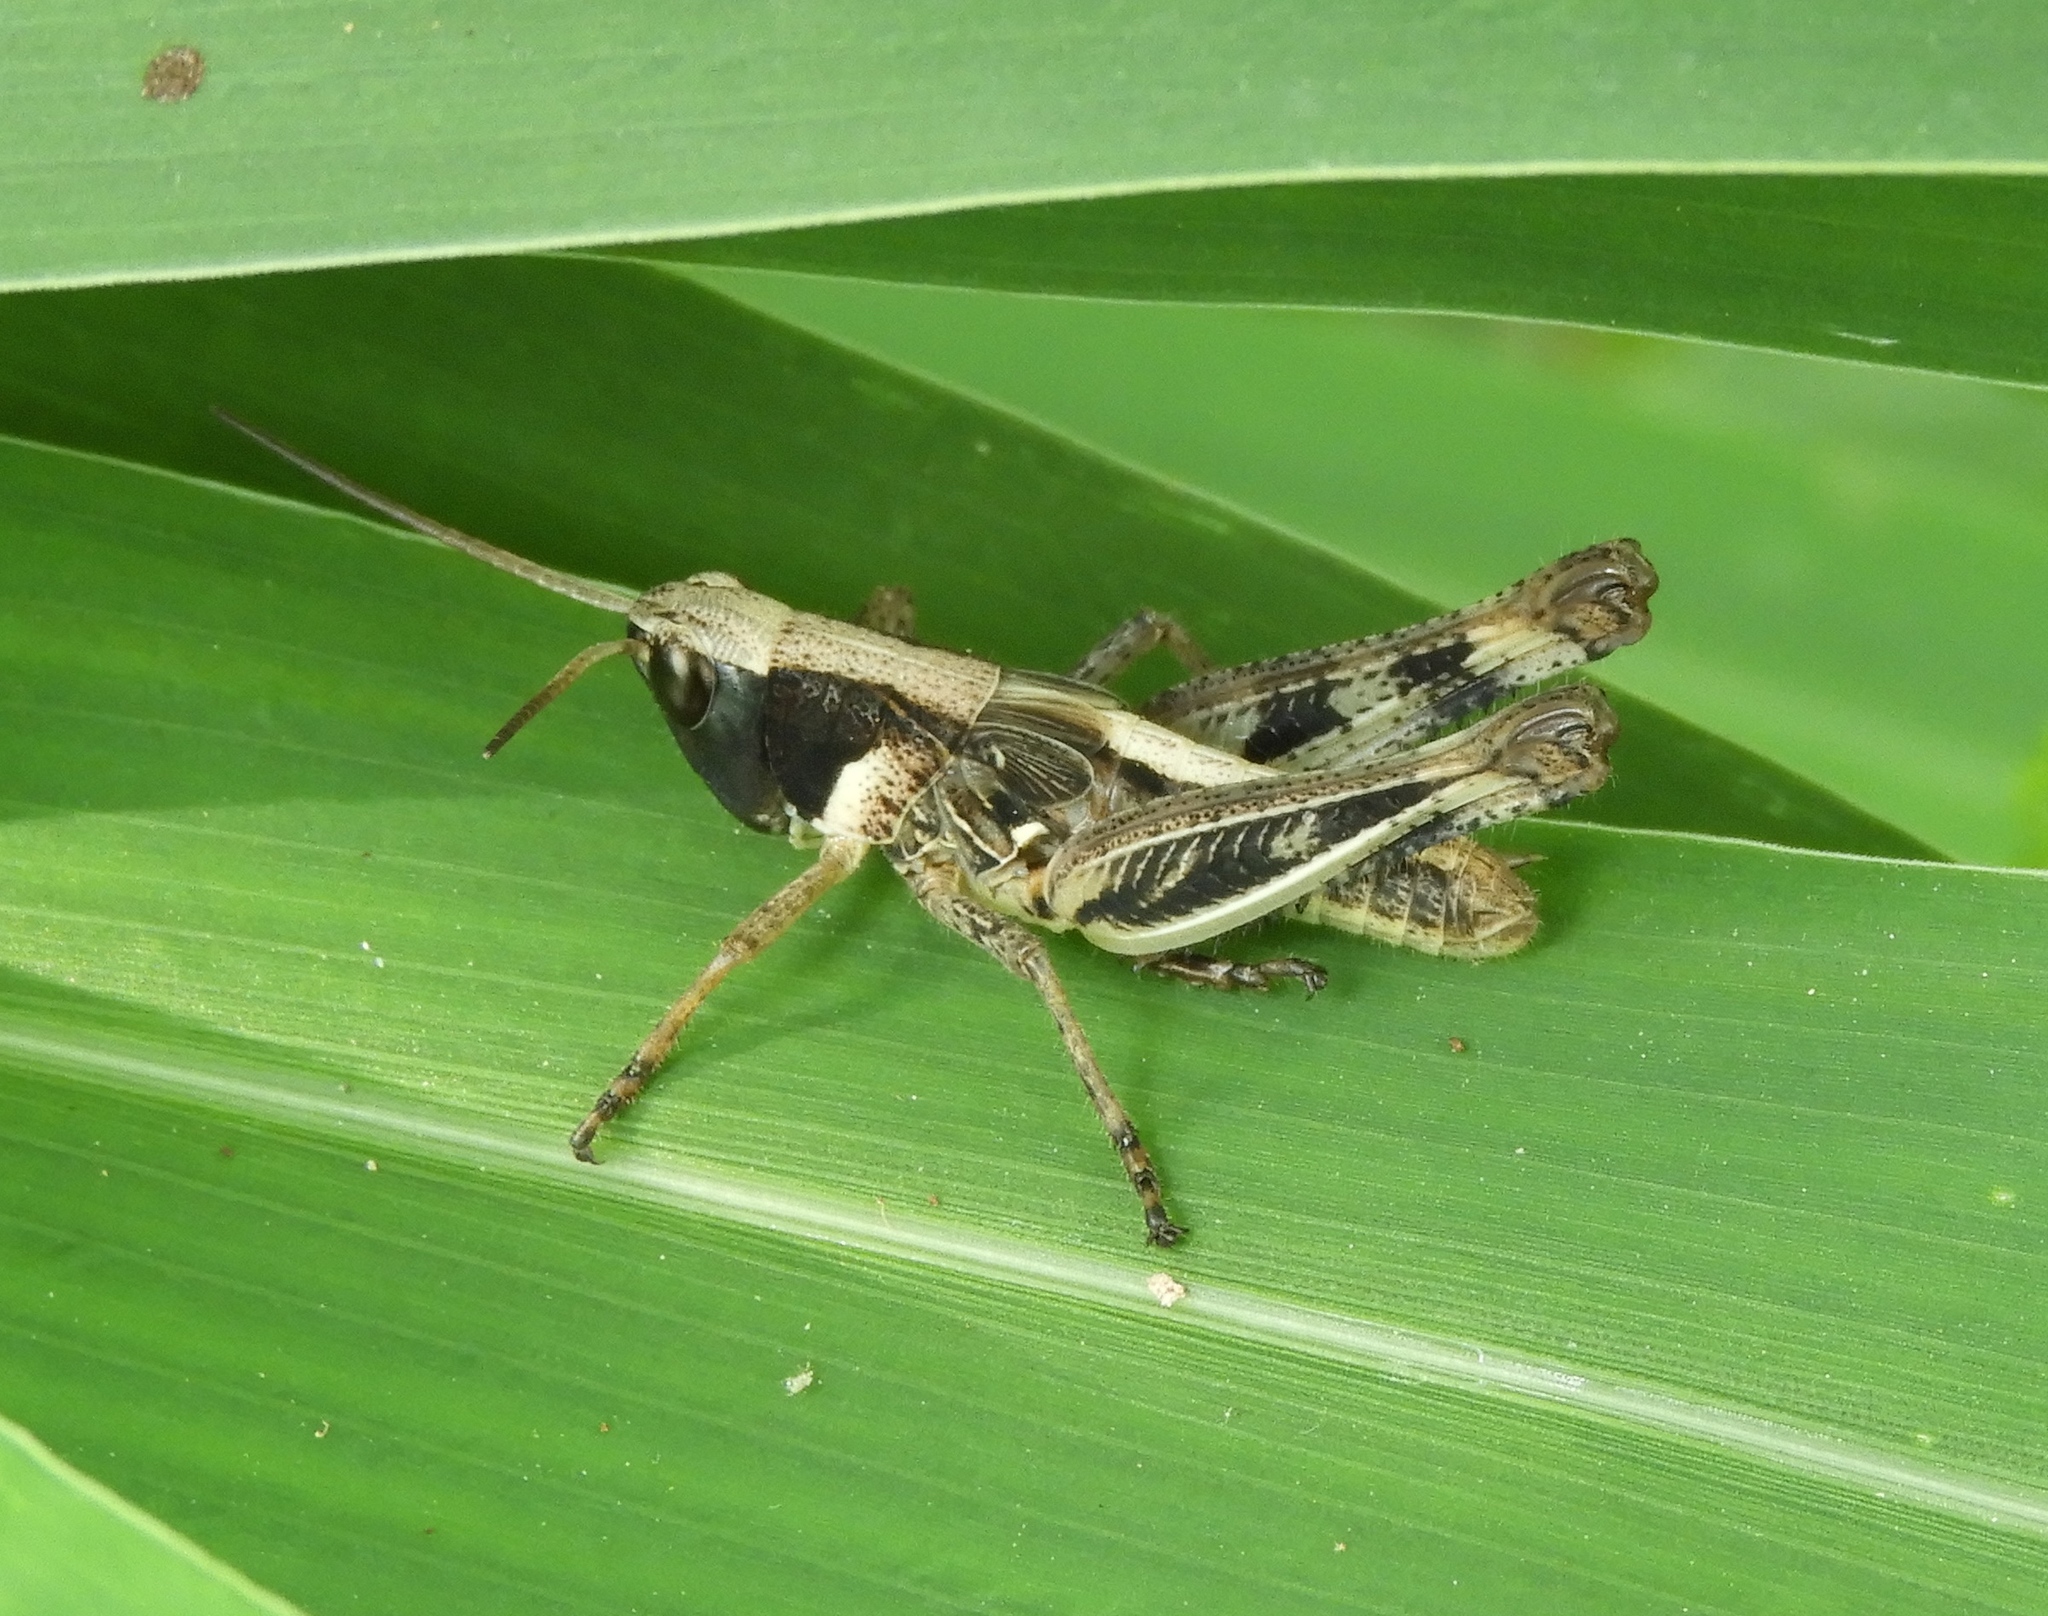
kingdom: Animalia
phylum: Arthropoda
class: Insecta
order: Orthoptera
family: Acrididae
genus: Boopedon
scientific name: Boopedon flaviventris
